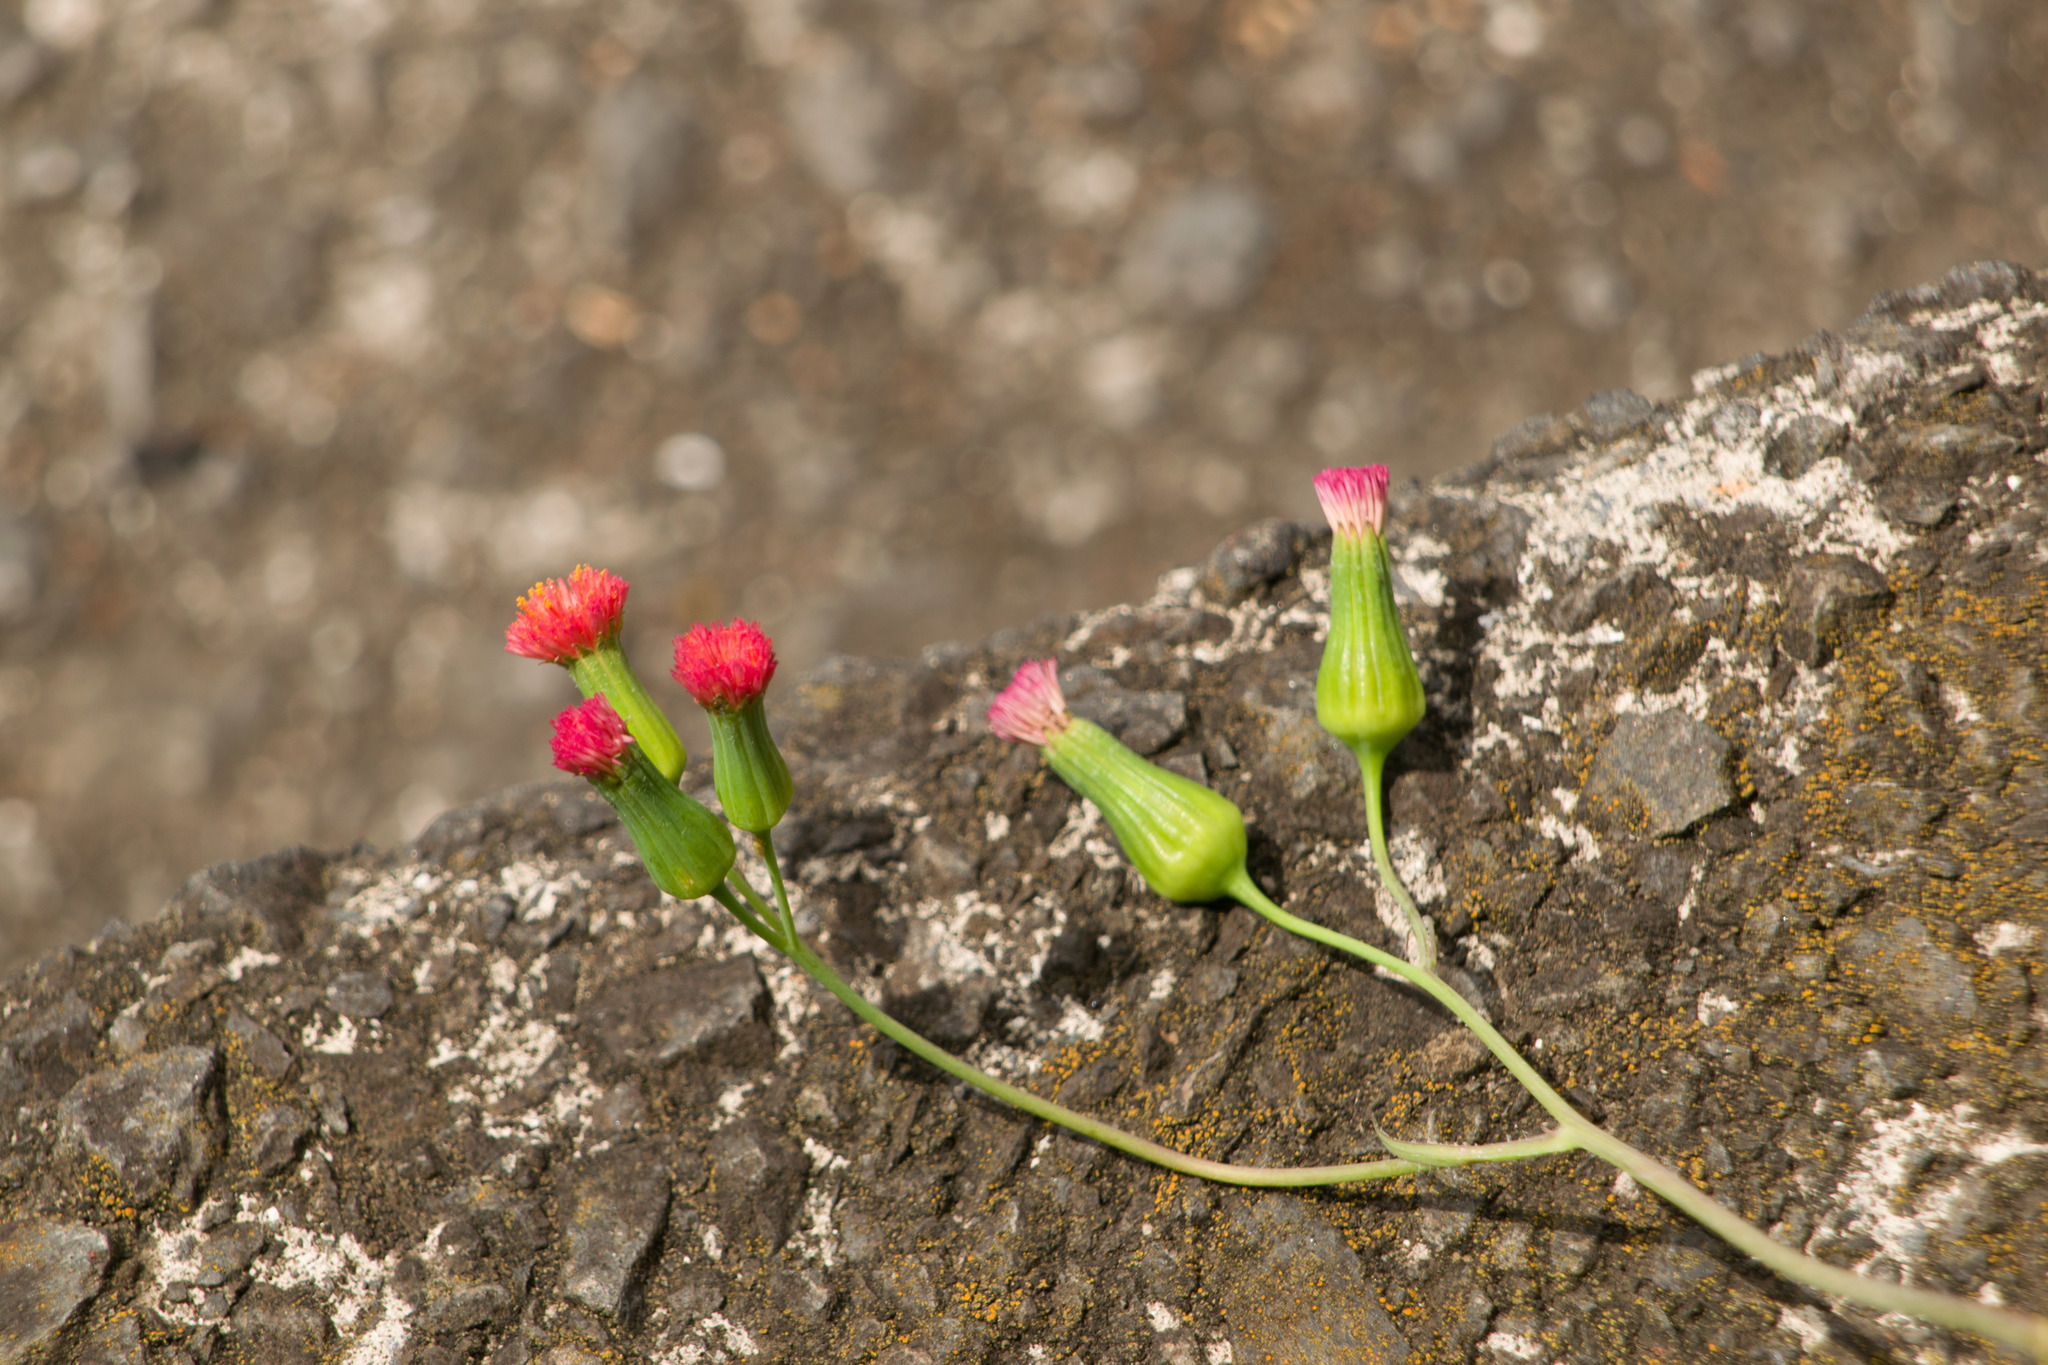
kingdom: Plantae
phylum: Tracheophyta
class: Magnoliopsida
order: Asterales
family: Asteraceae
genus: Emilia
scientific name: Emilia sonchifolia
